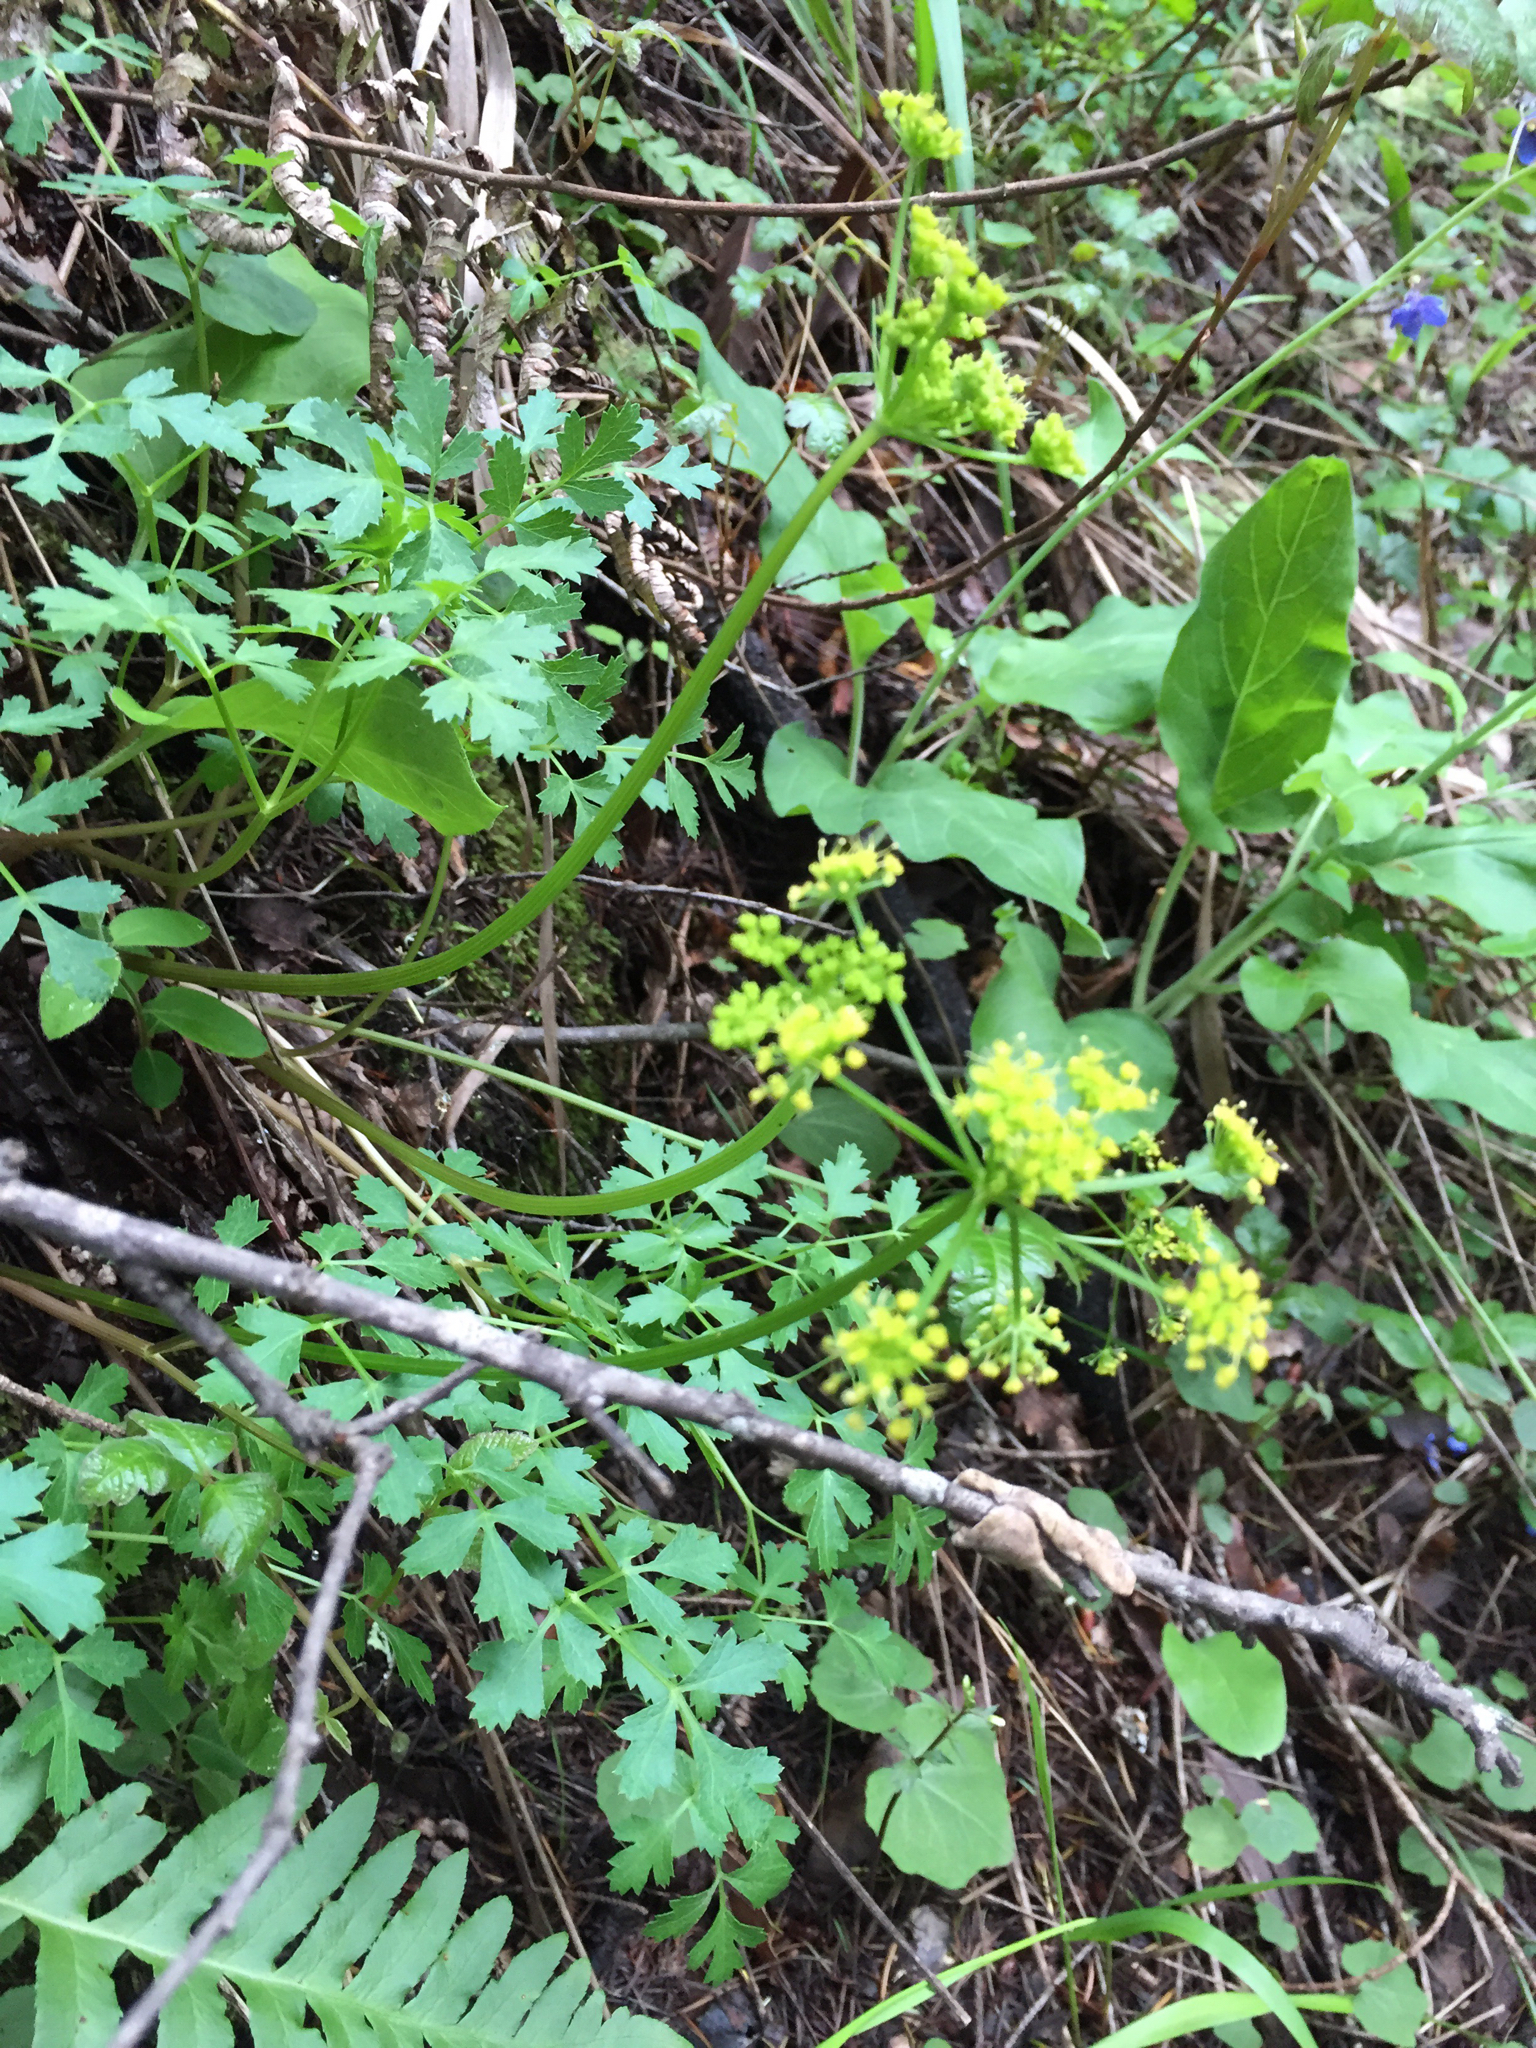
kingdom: Plantae
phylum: Tracheophyta
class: Magnoliopsida
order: Apiales
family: Apiaceae
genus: Tauschia
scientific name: Tauschia kelloggii
